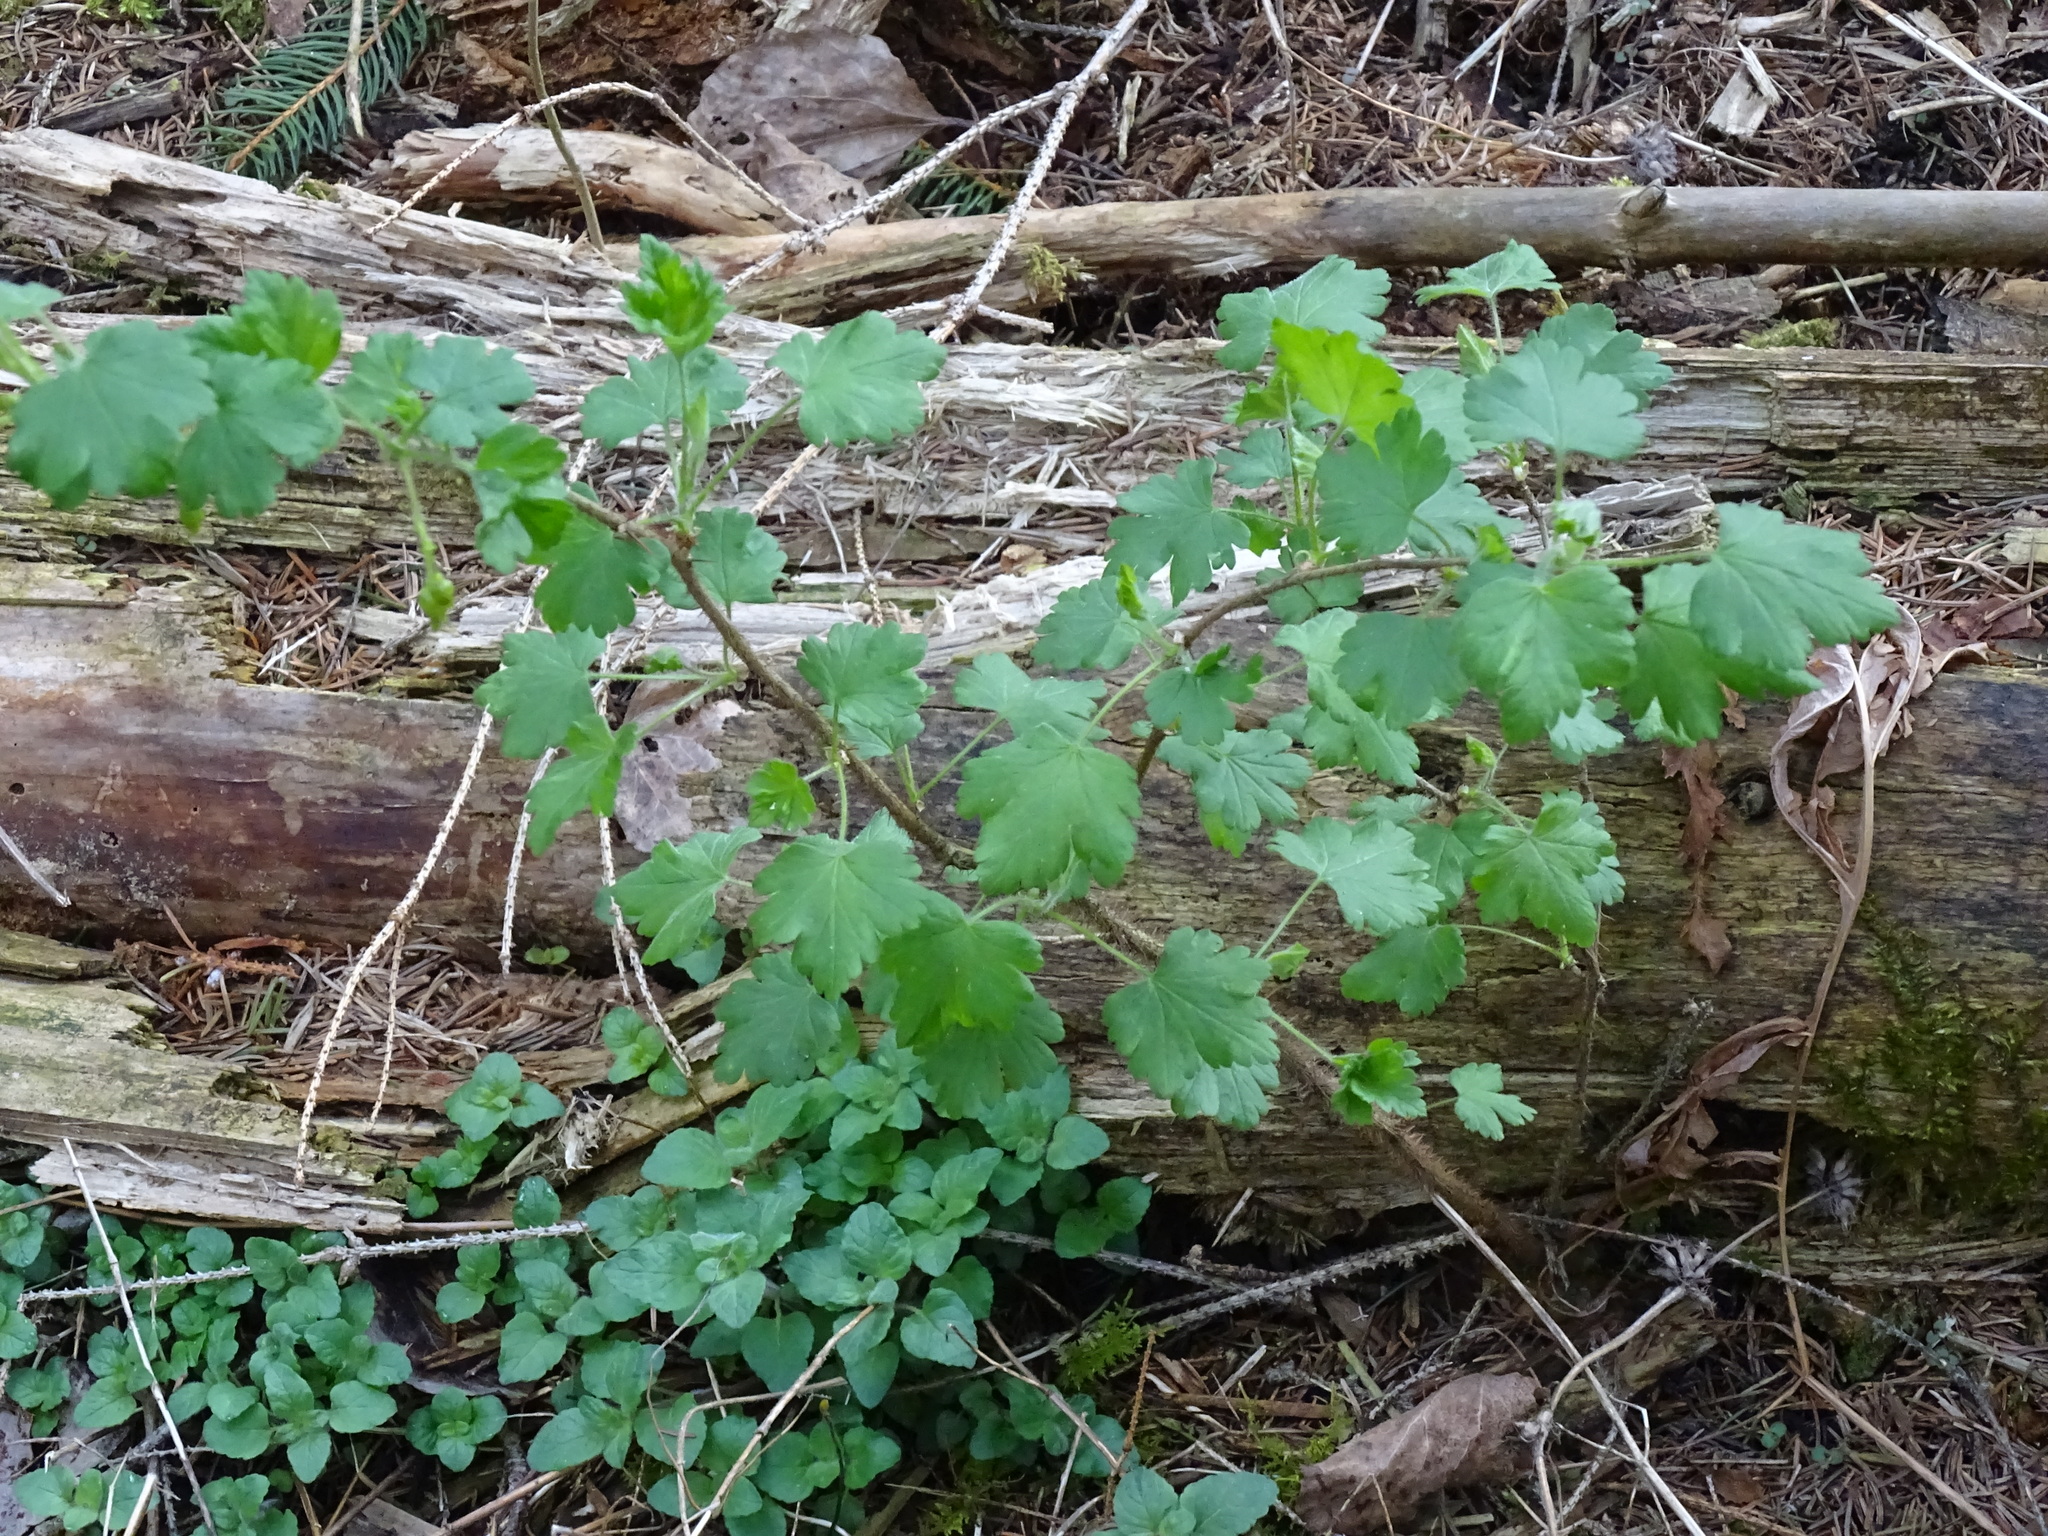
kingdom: Plantae
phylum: Tracheophyta
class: Magnoliopsida
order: Saxifragales
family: Grossulariaceae
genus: Ribes
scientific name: Ribes cynosbati
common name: American gooseberry
